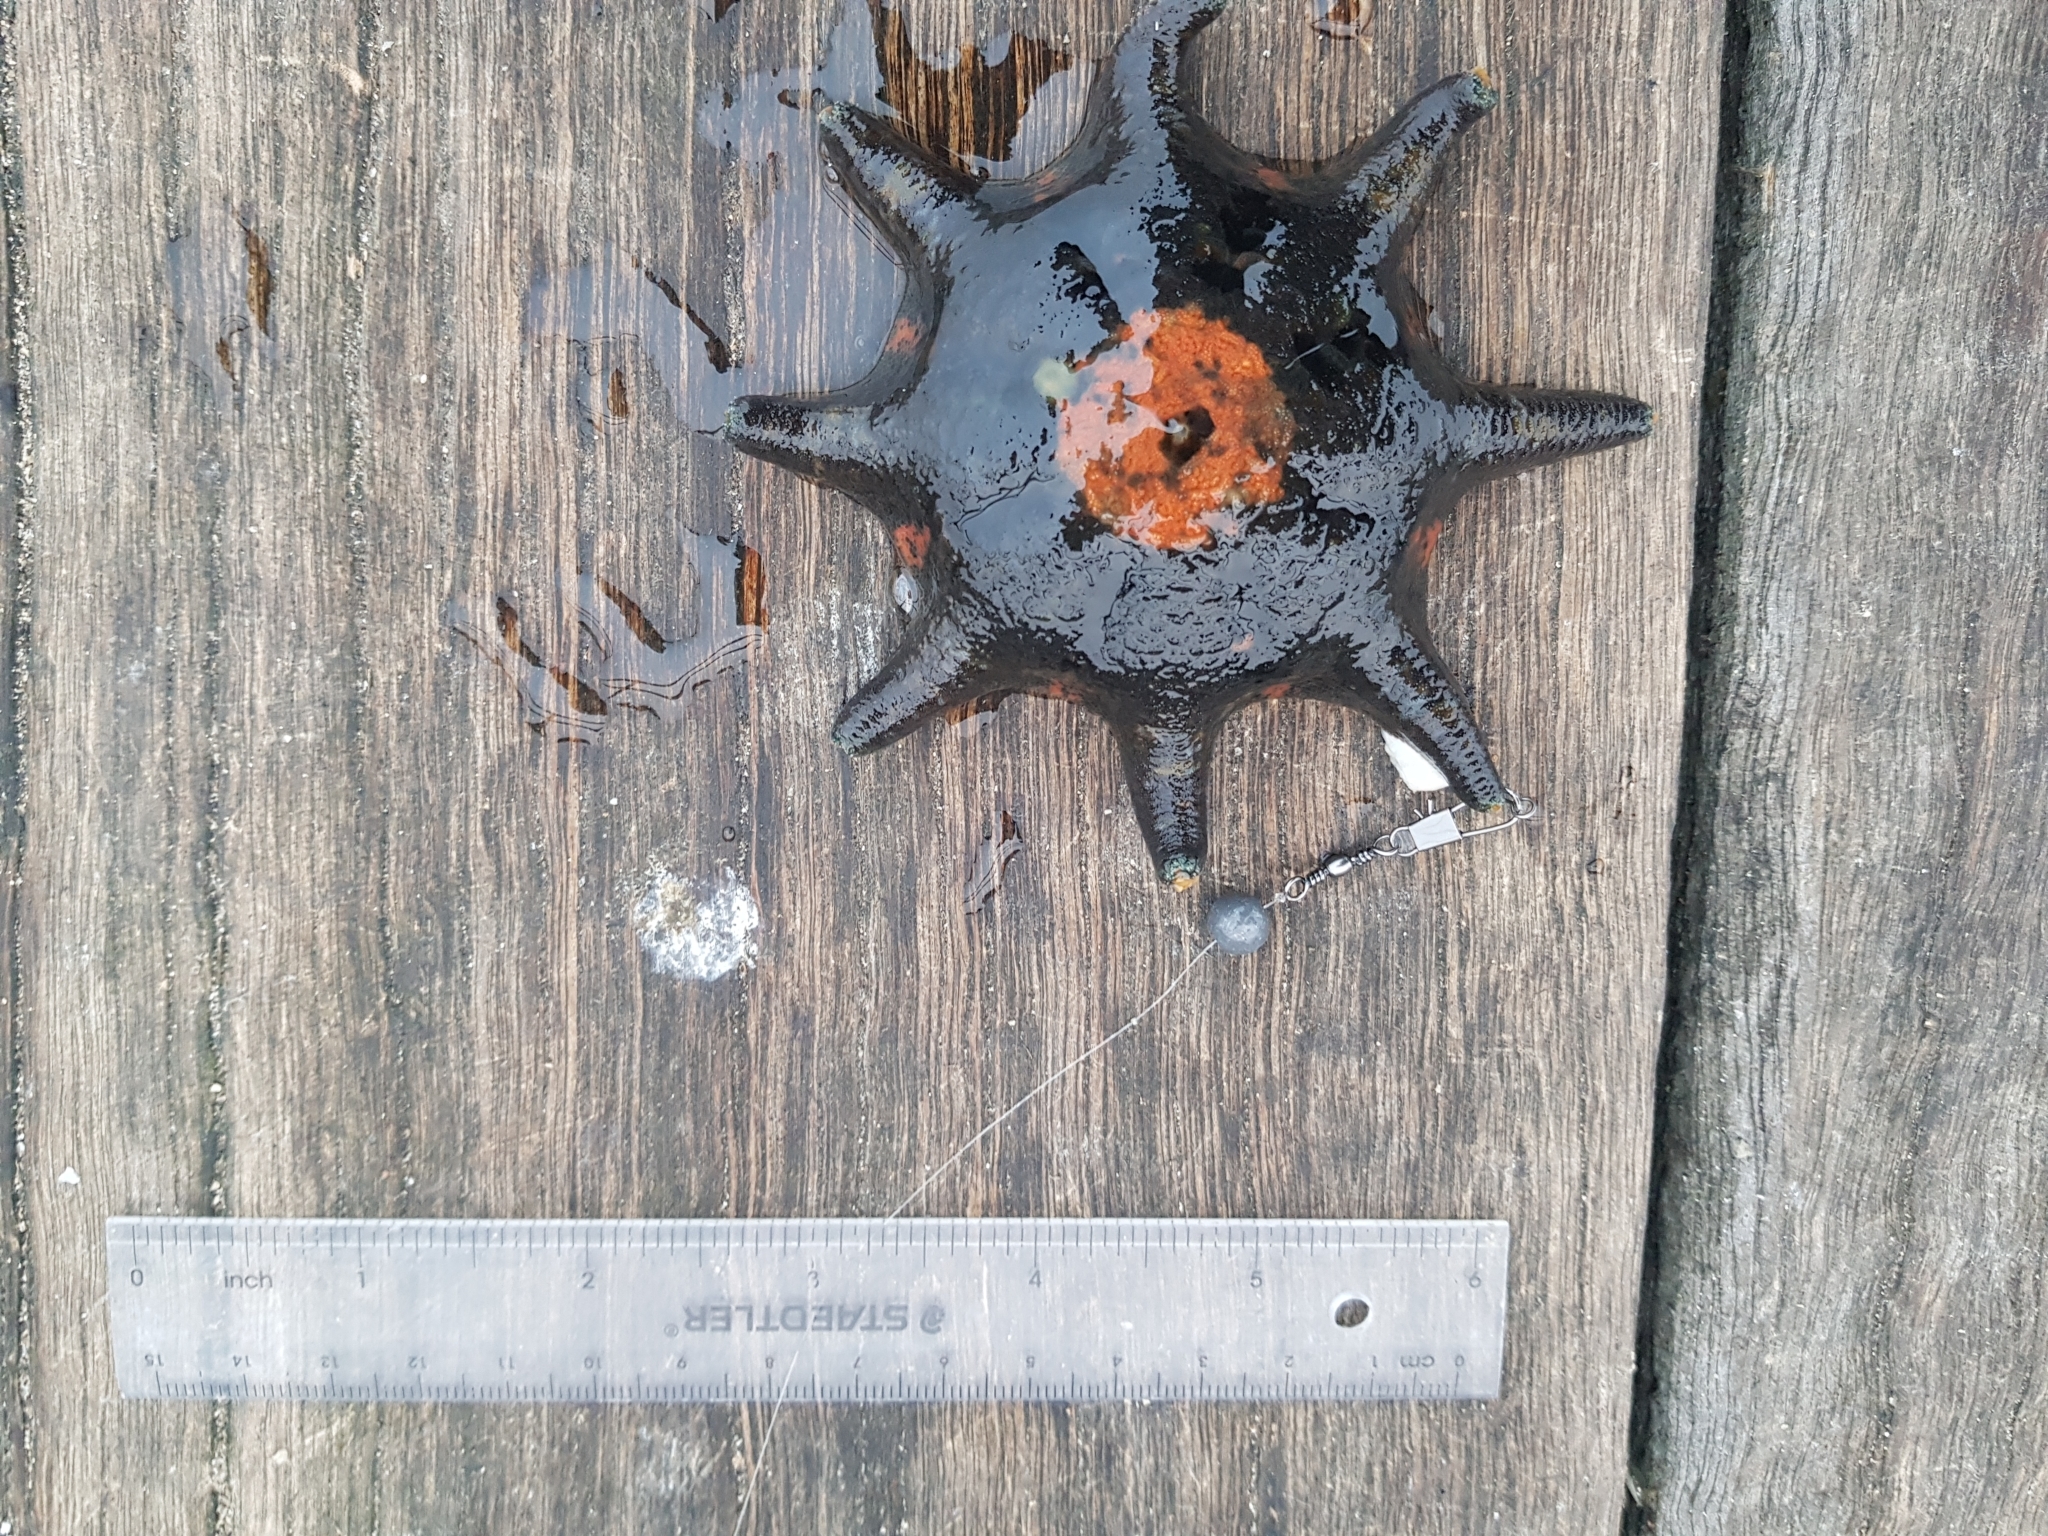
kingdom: Animalia
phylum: Echinodermata
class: Asteroidea
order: Valvatida
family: Asterinidae
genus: Meridiastra
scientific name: Meridiastra calcar
